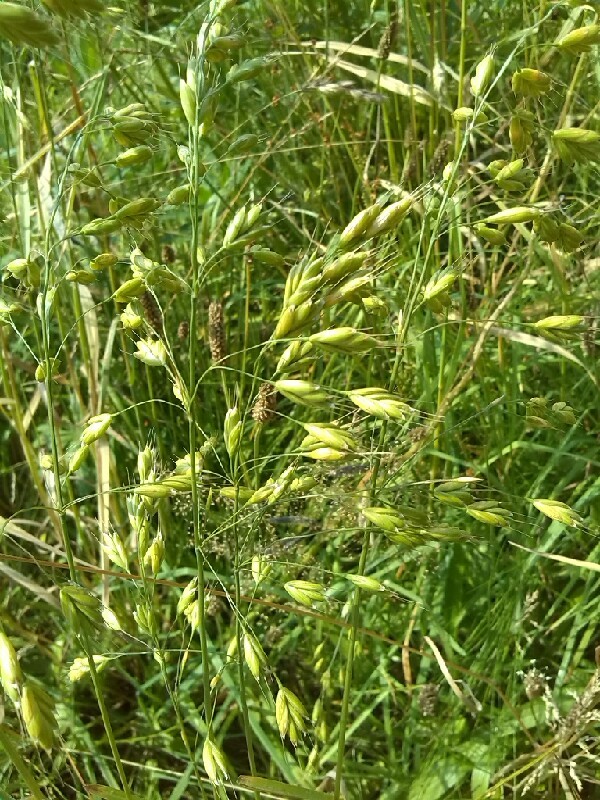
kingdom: Plantae
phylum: Tracheophyta
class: Liliopsida
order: Poales
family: Poaceae
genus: Bromus
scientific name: Bromus secalinus
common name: Rye brome
